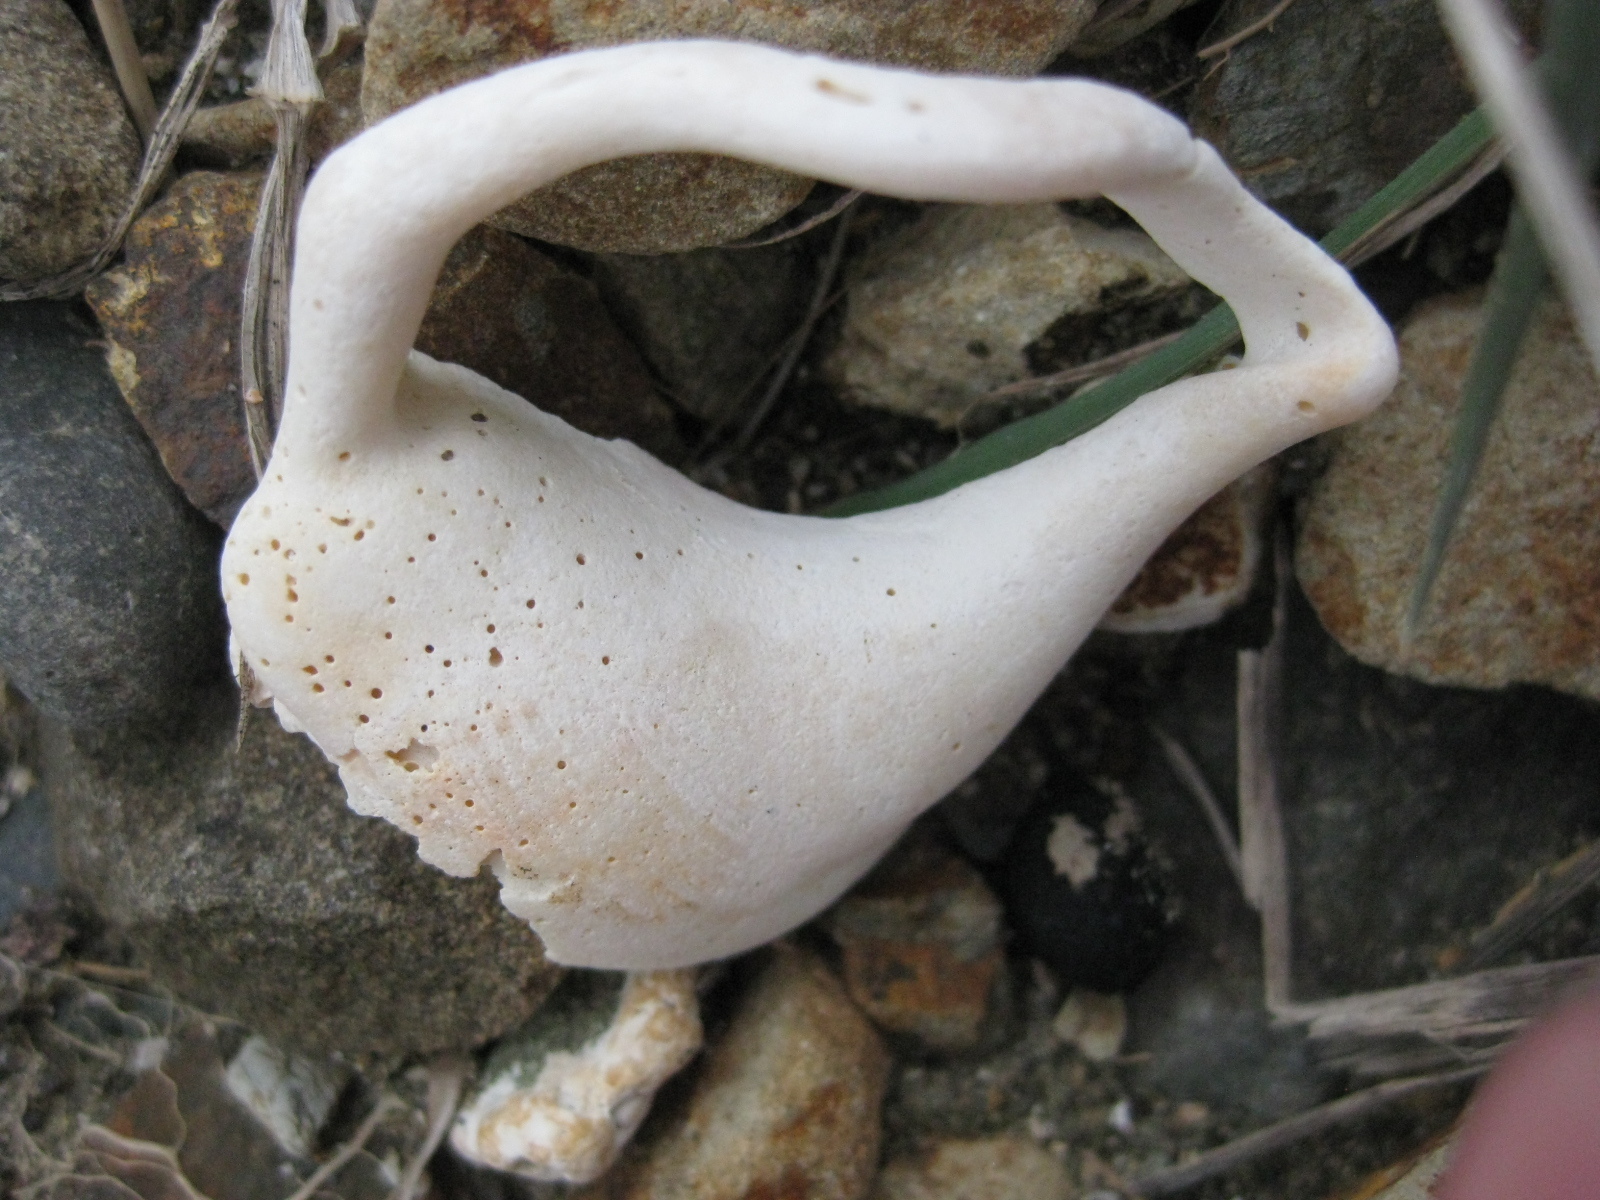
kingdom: Animalia
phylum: Mollusca
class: Gastropoda
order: Littorinimorpha
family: Struthiolariidae
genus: Struthiolaria
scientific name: Struthiolaria papulosa
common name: Large ostrich foot
